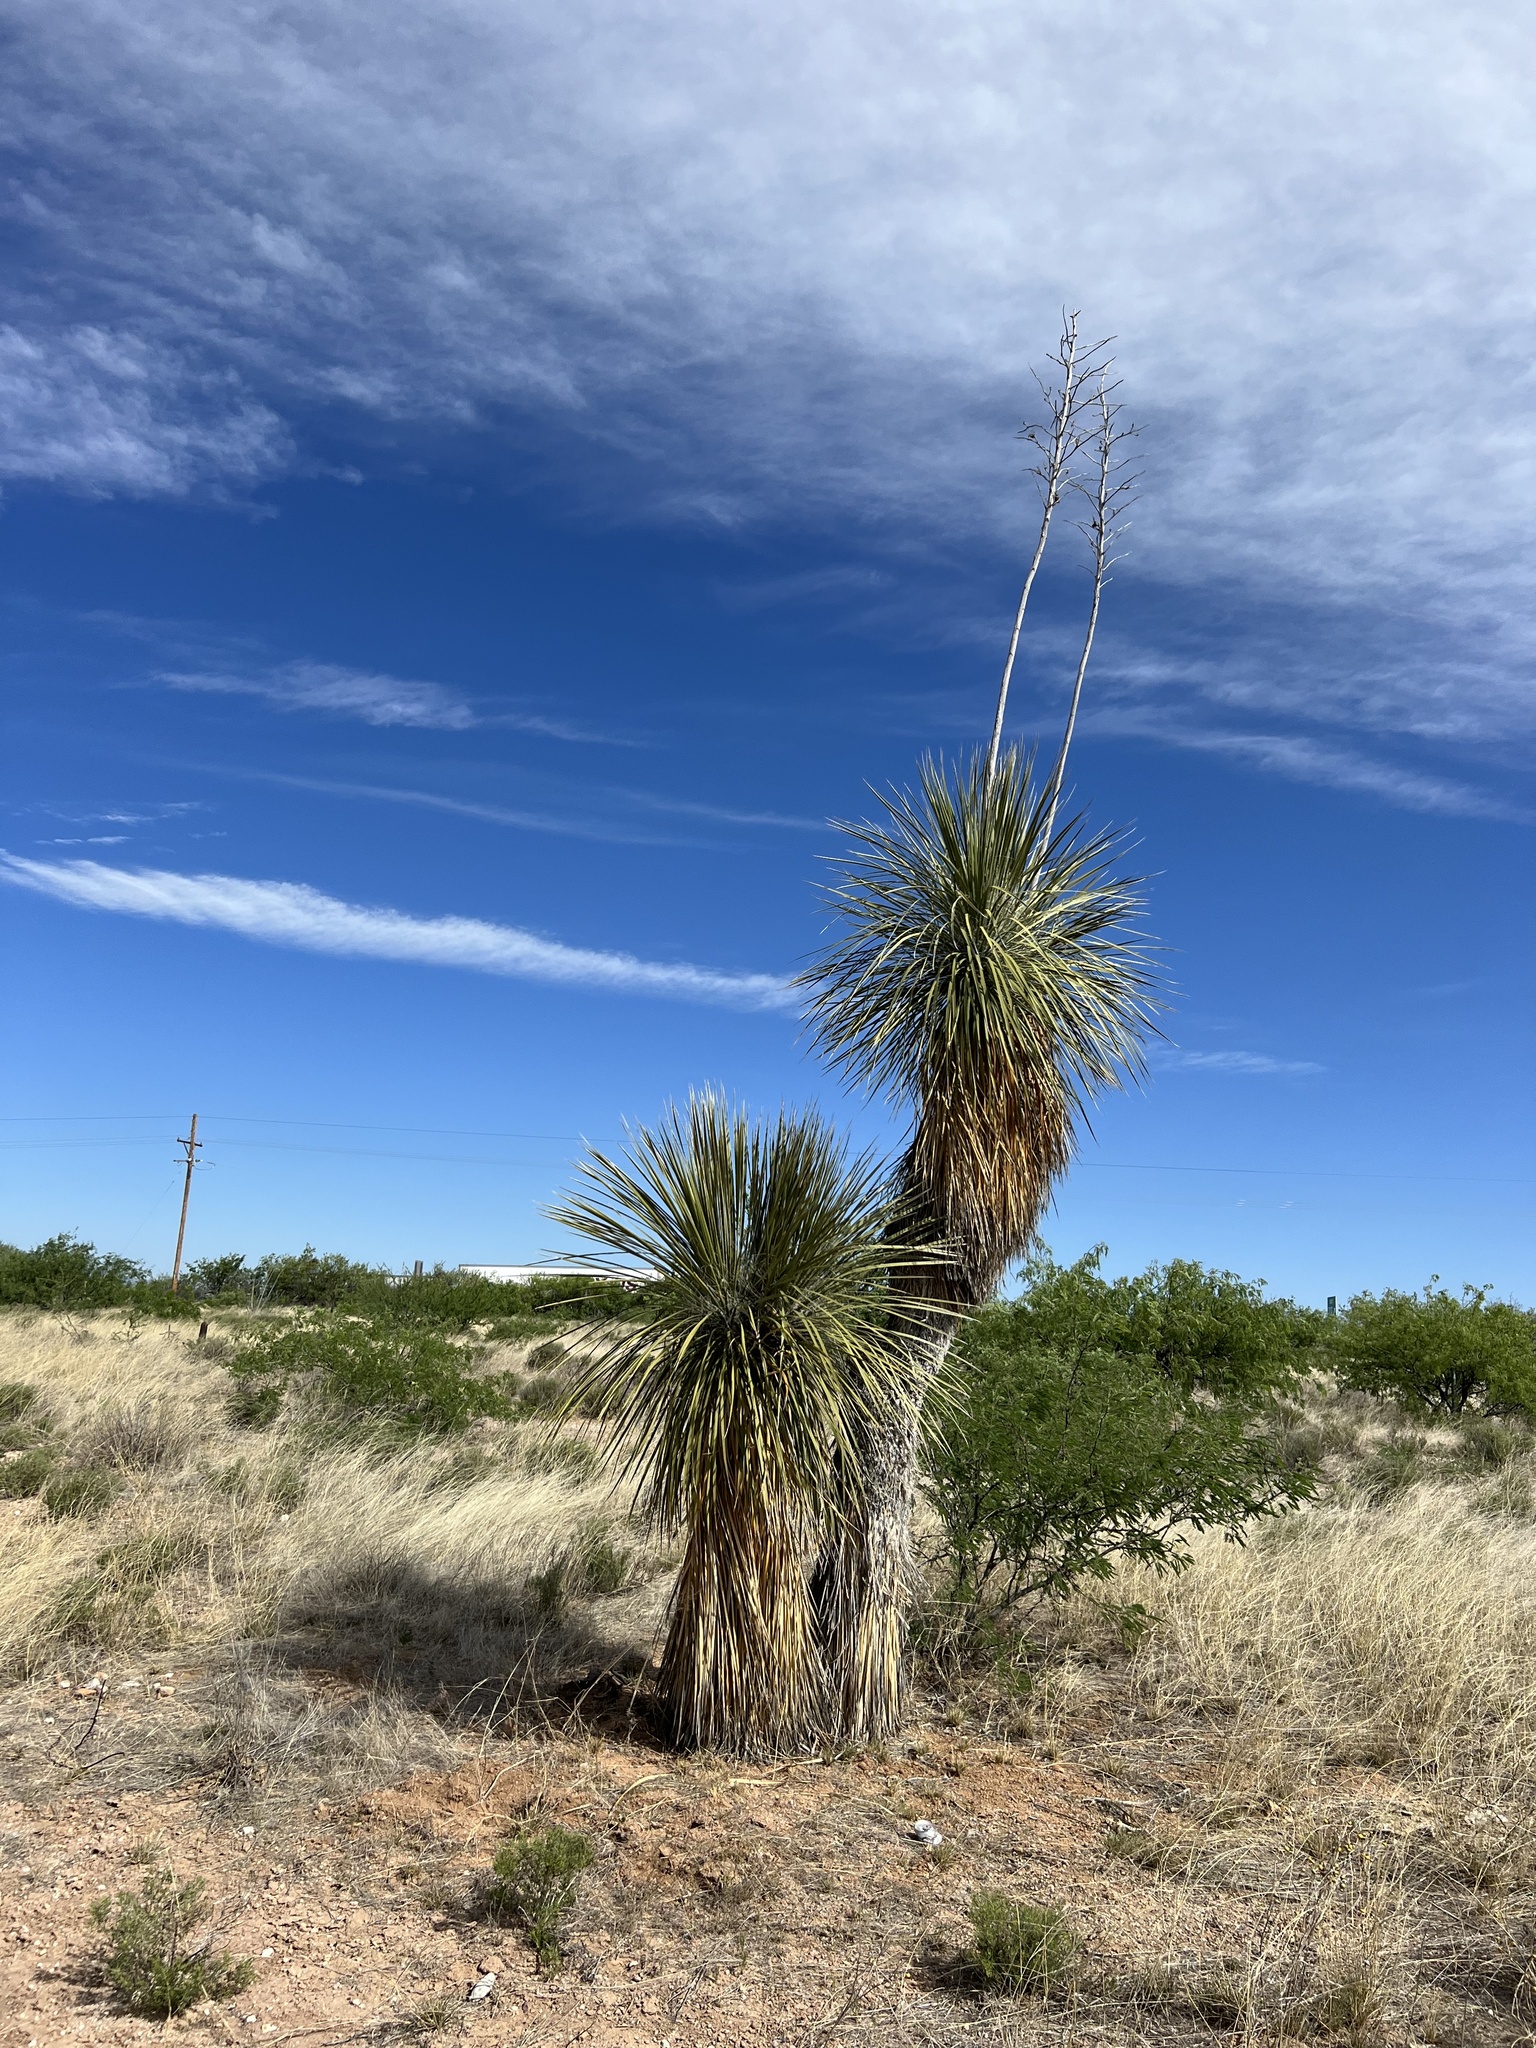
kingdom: Plantae
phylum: Tracheophyta
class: Liliopsida
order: Asparagales
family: Asparagaceae
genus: Yucca
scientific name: Yucca elata
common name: Palmella
